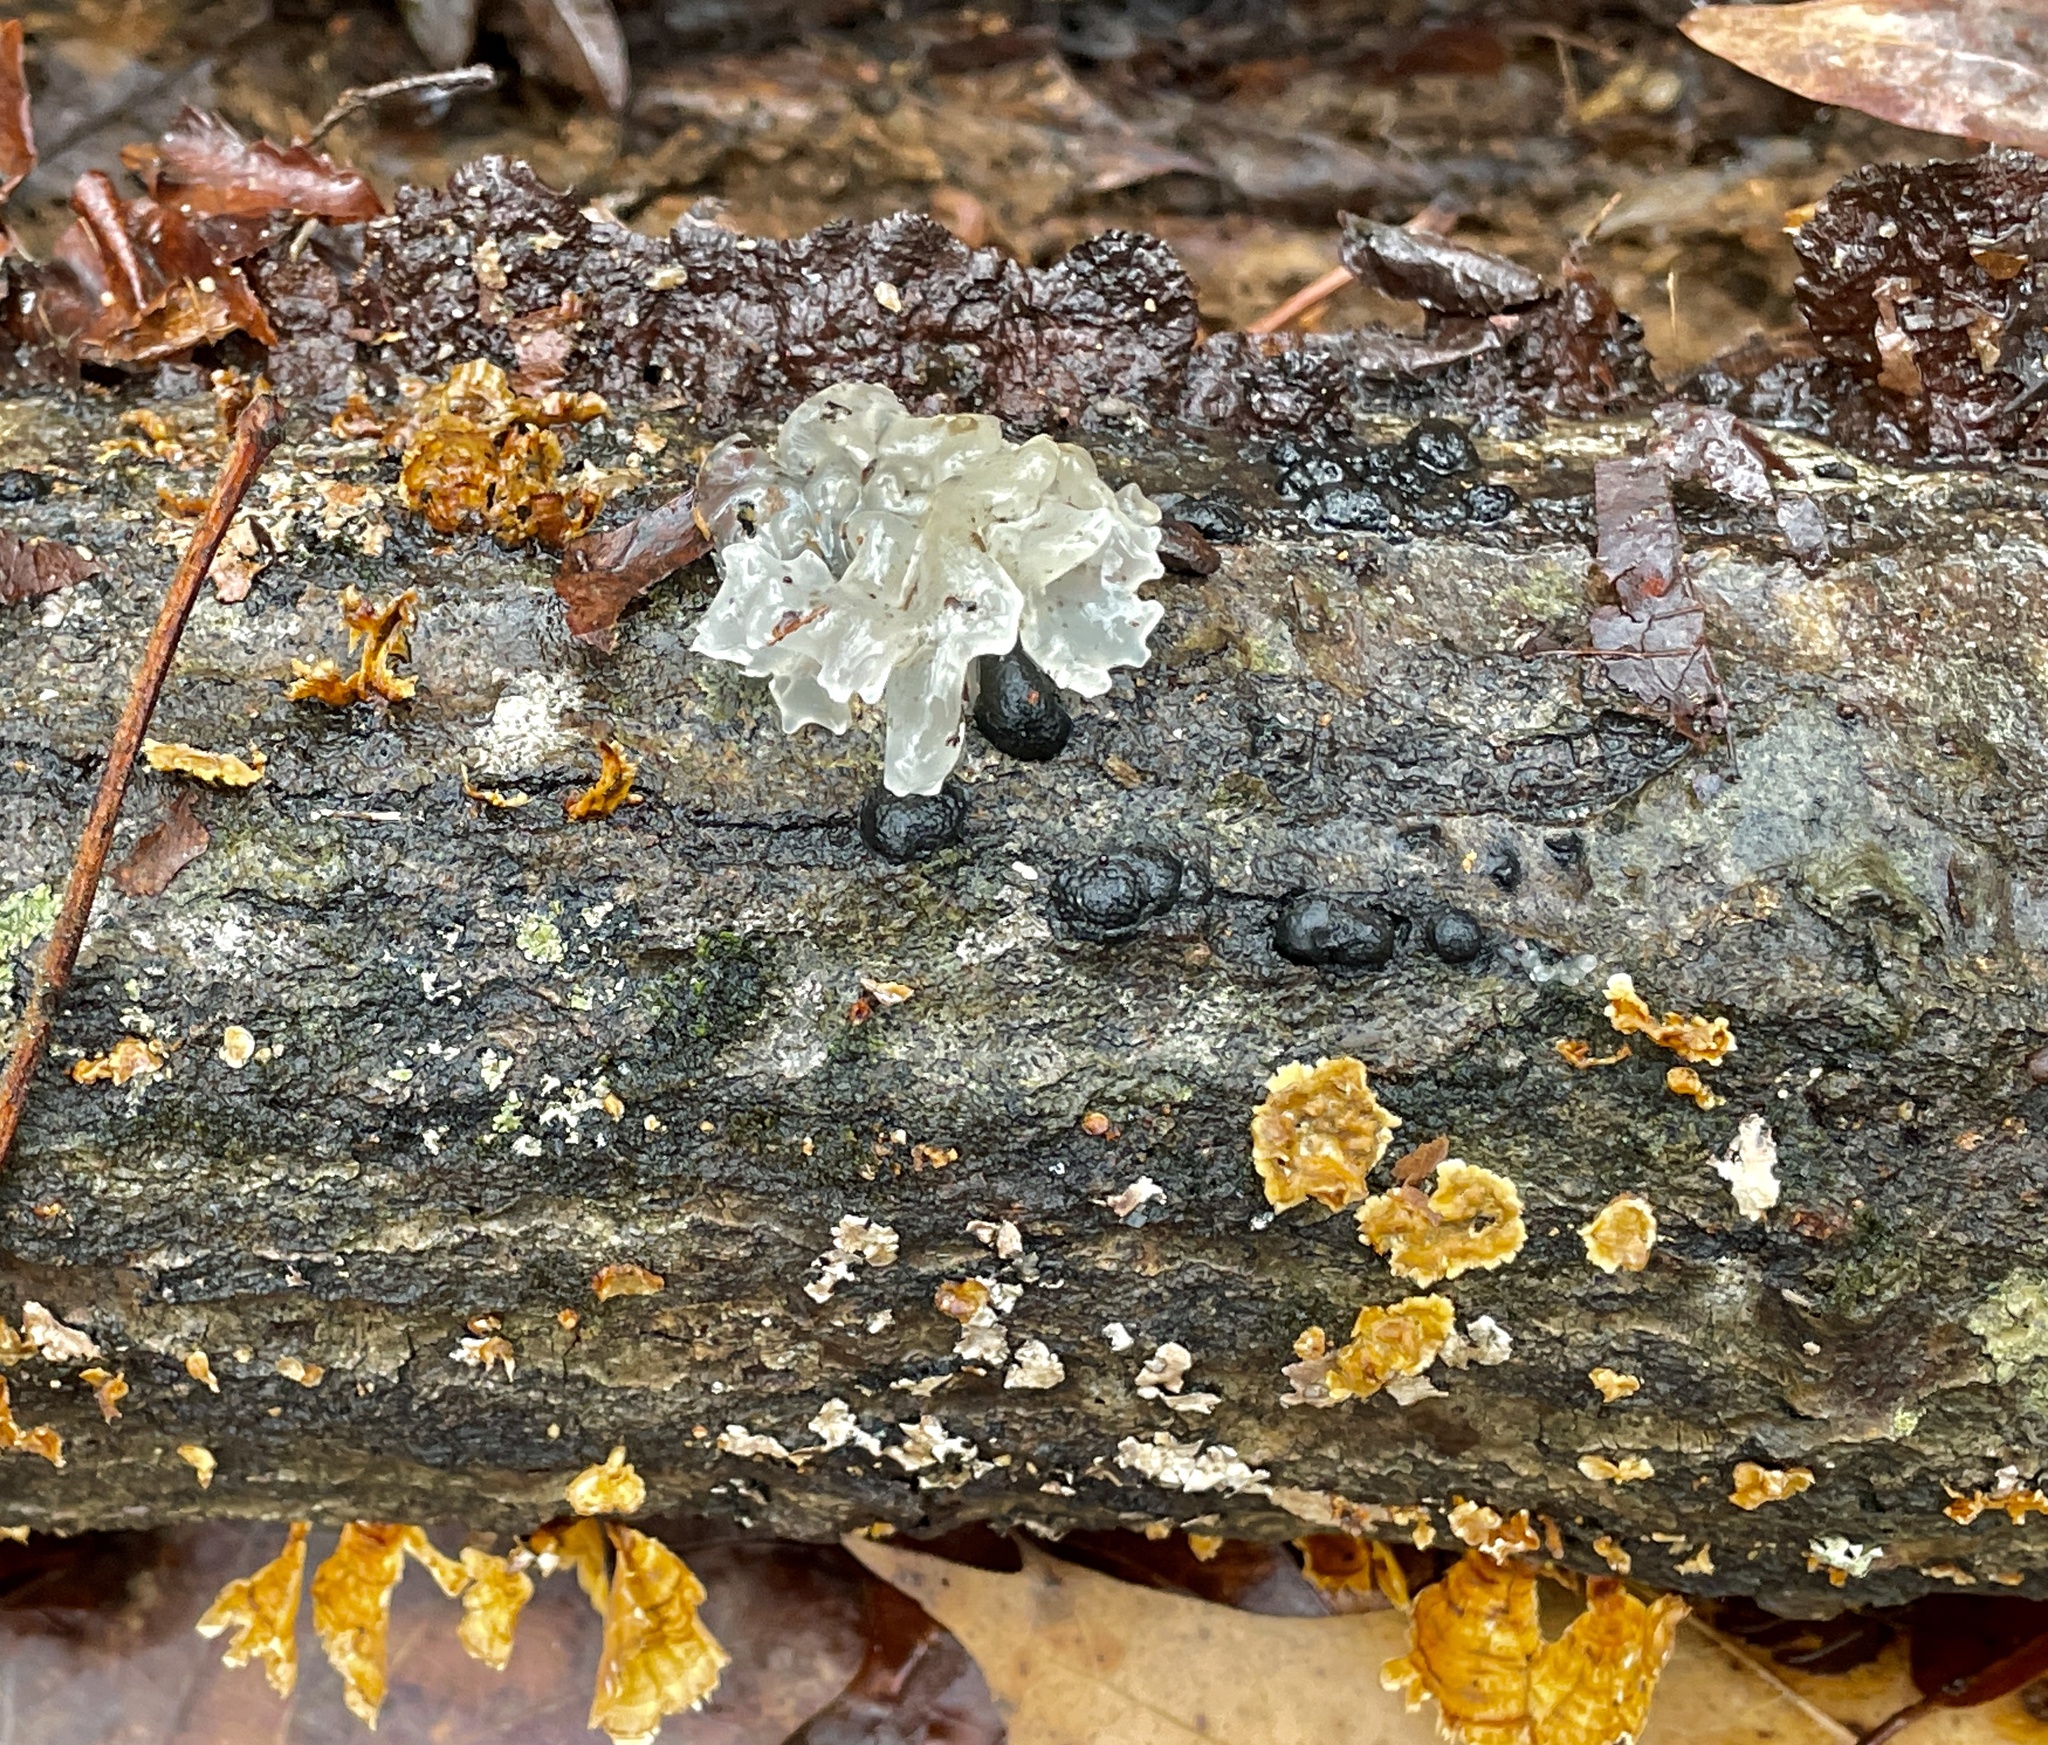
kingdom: Fungi
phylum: Basidiomycota
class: Tremellomycetes
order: Tremellales
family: Tremellaceae
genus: Tremella
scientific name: Tremella fuciformis
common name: Snow fungus
